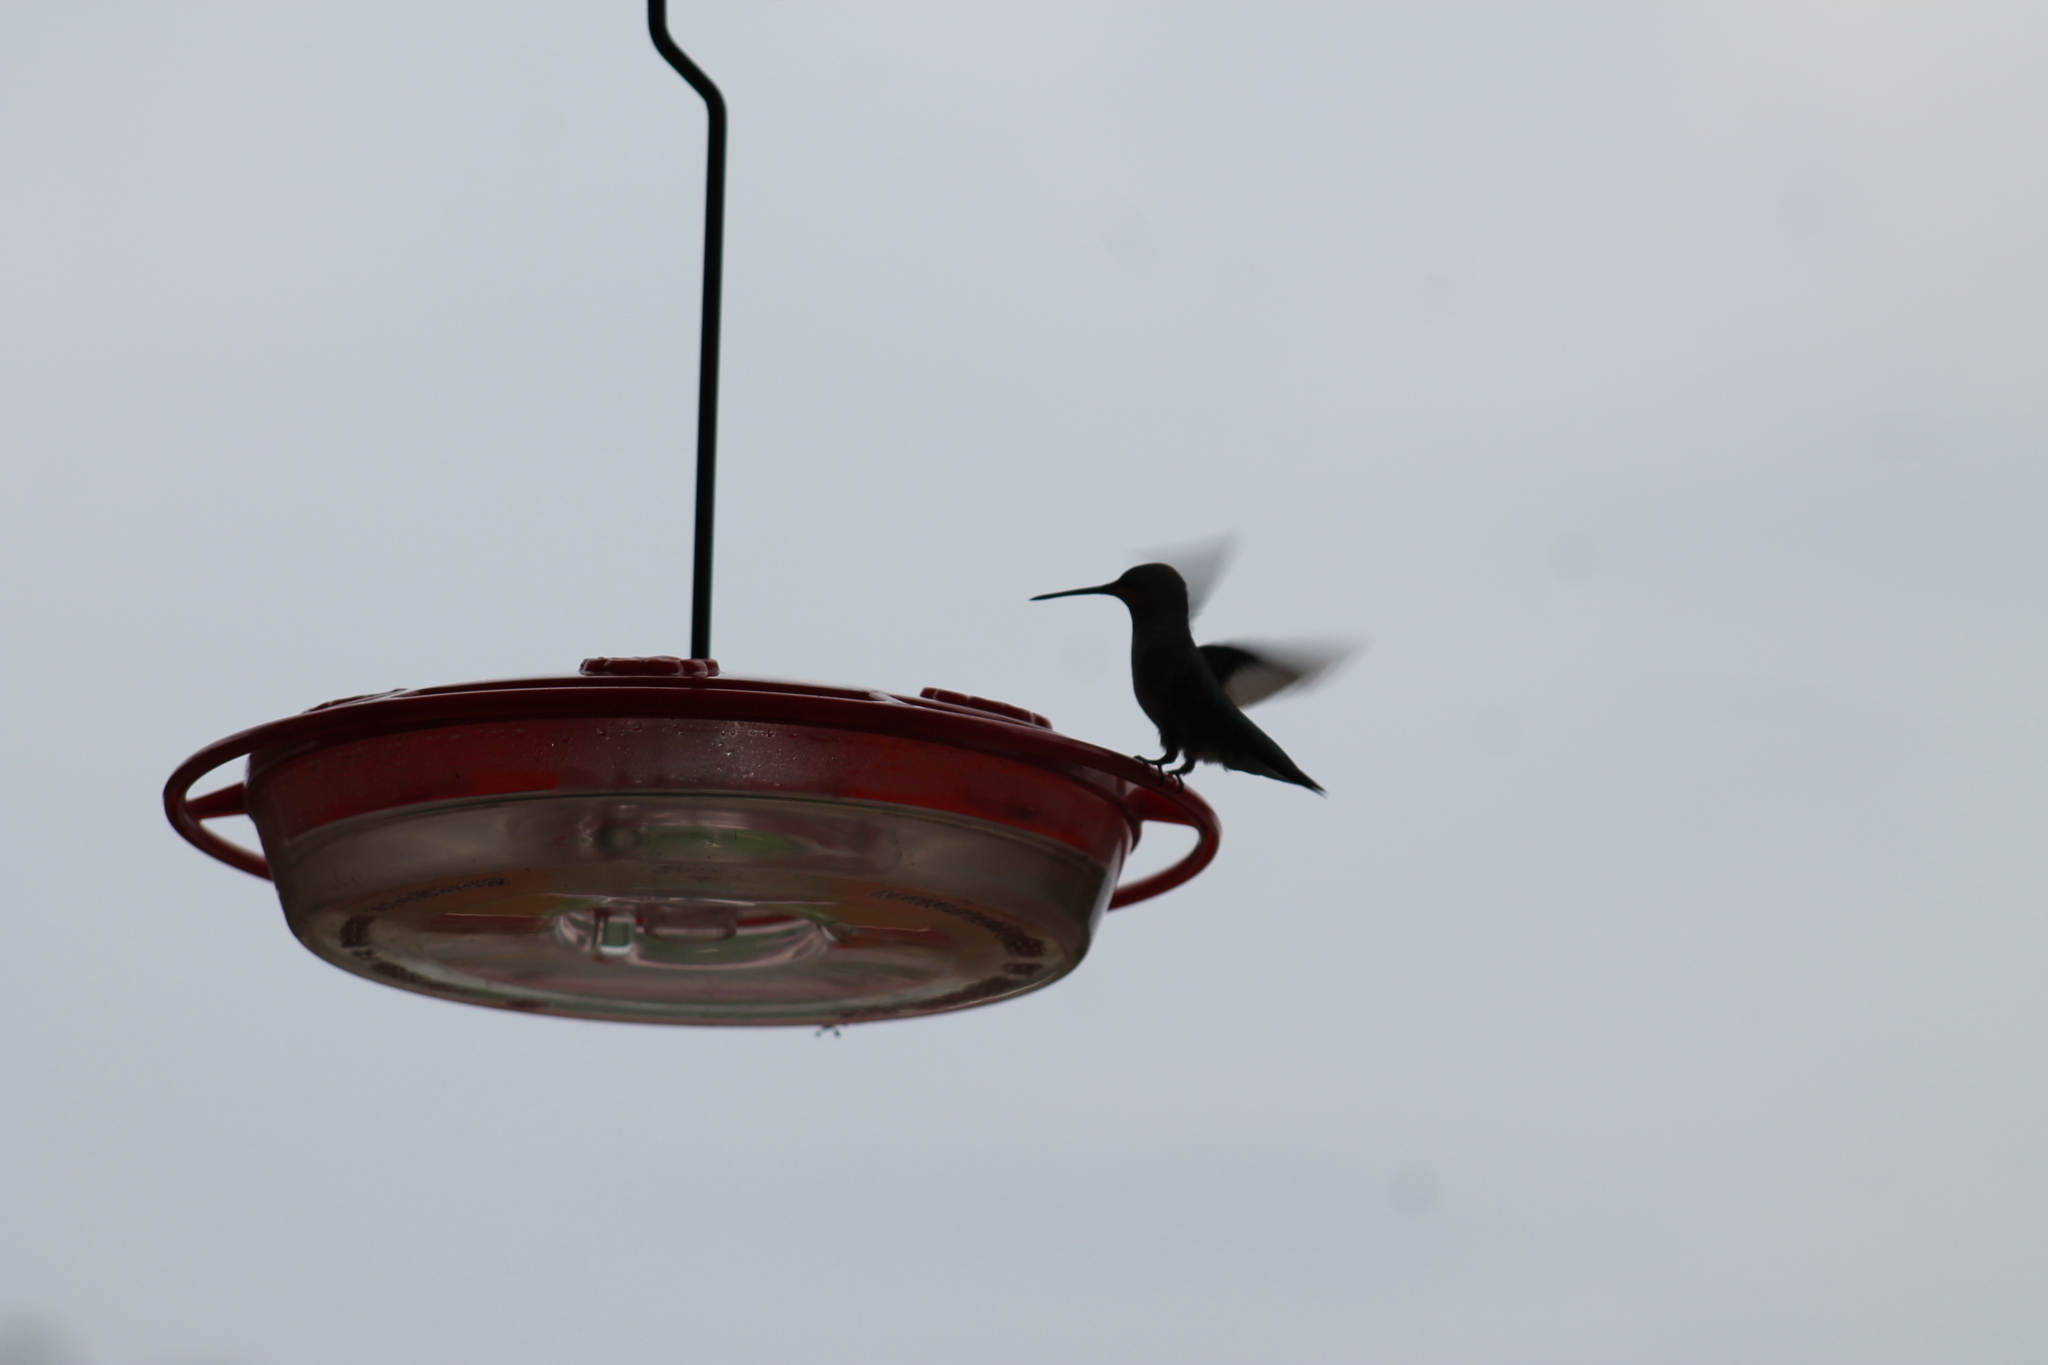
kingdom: Animalia
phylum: Chordata
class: Aves
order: Apodiformes
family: Trochilidae
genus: Archilochus
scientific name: Archilochus colubris
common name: Ruby-throated hummingbird
